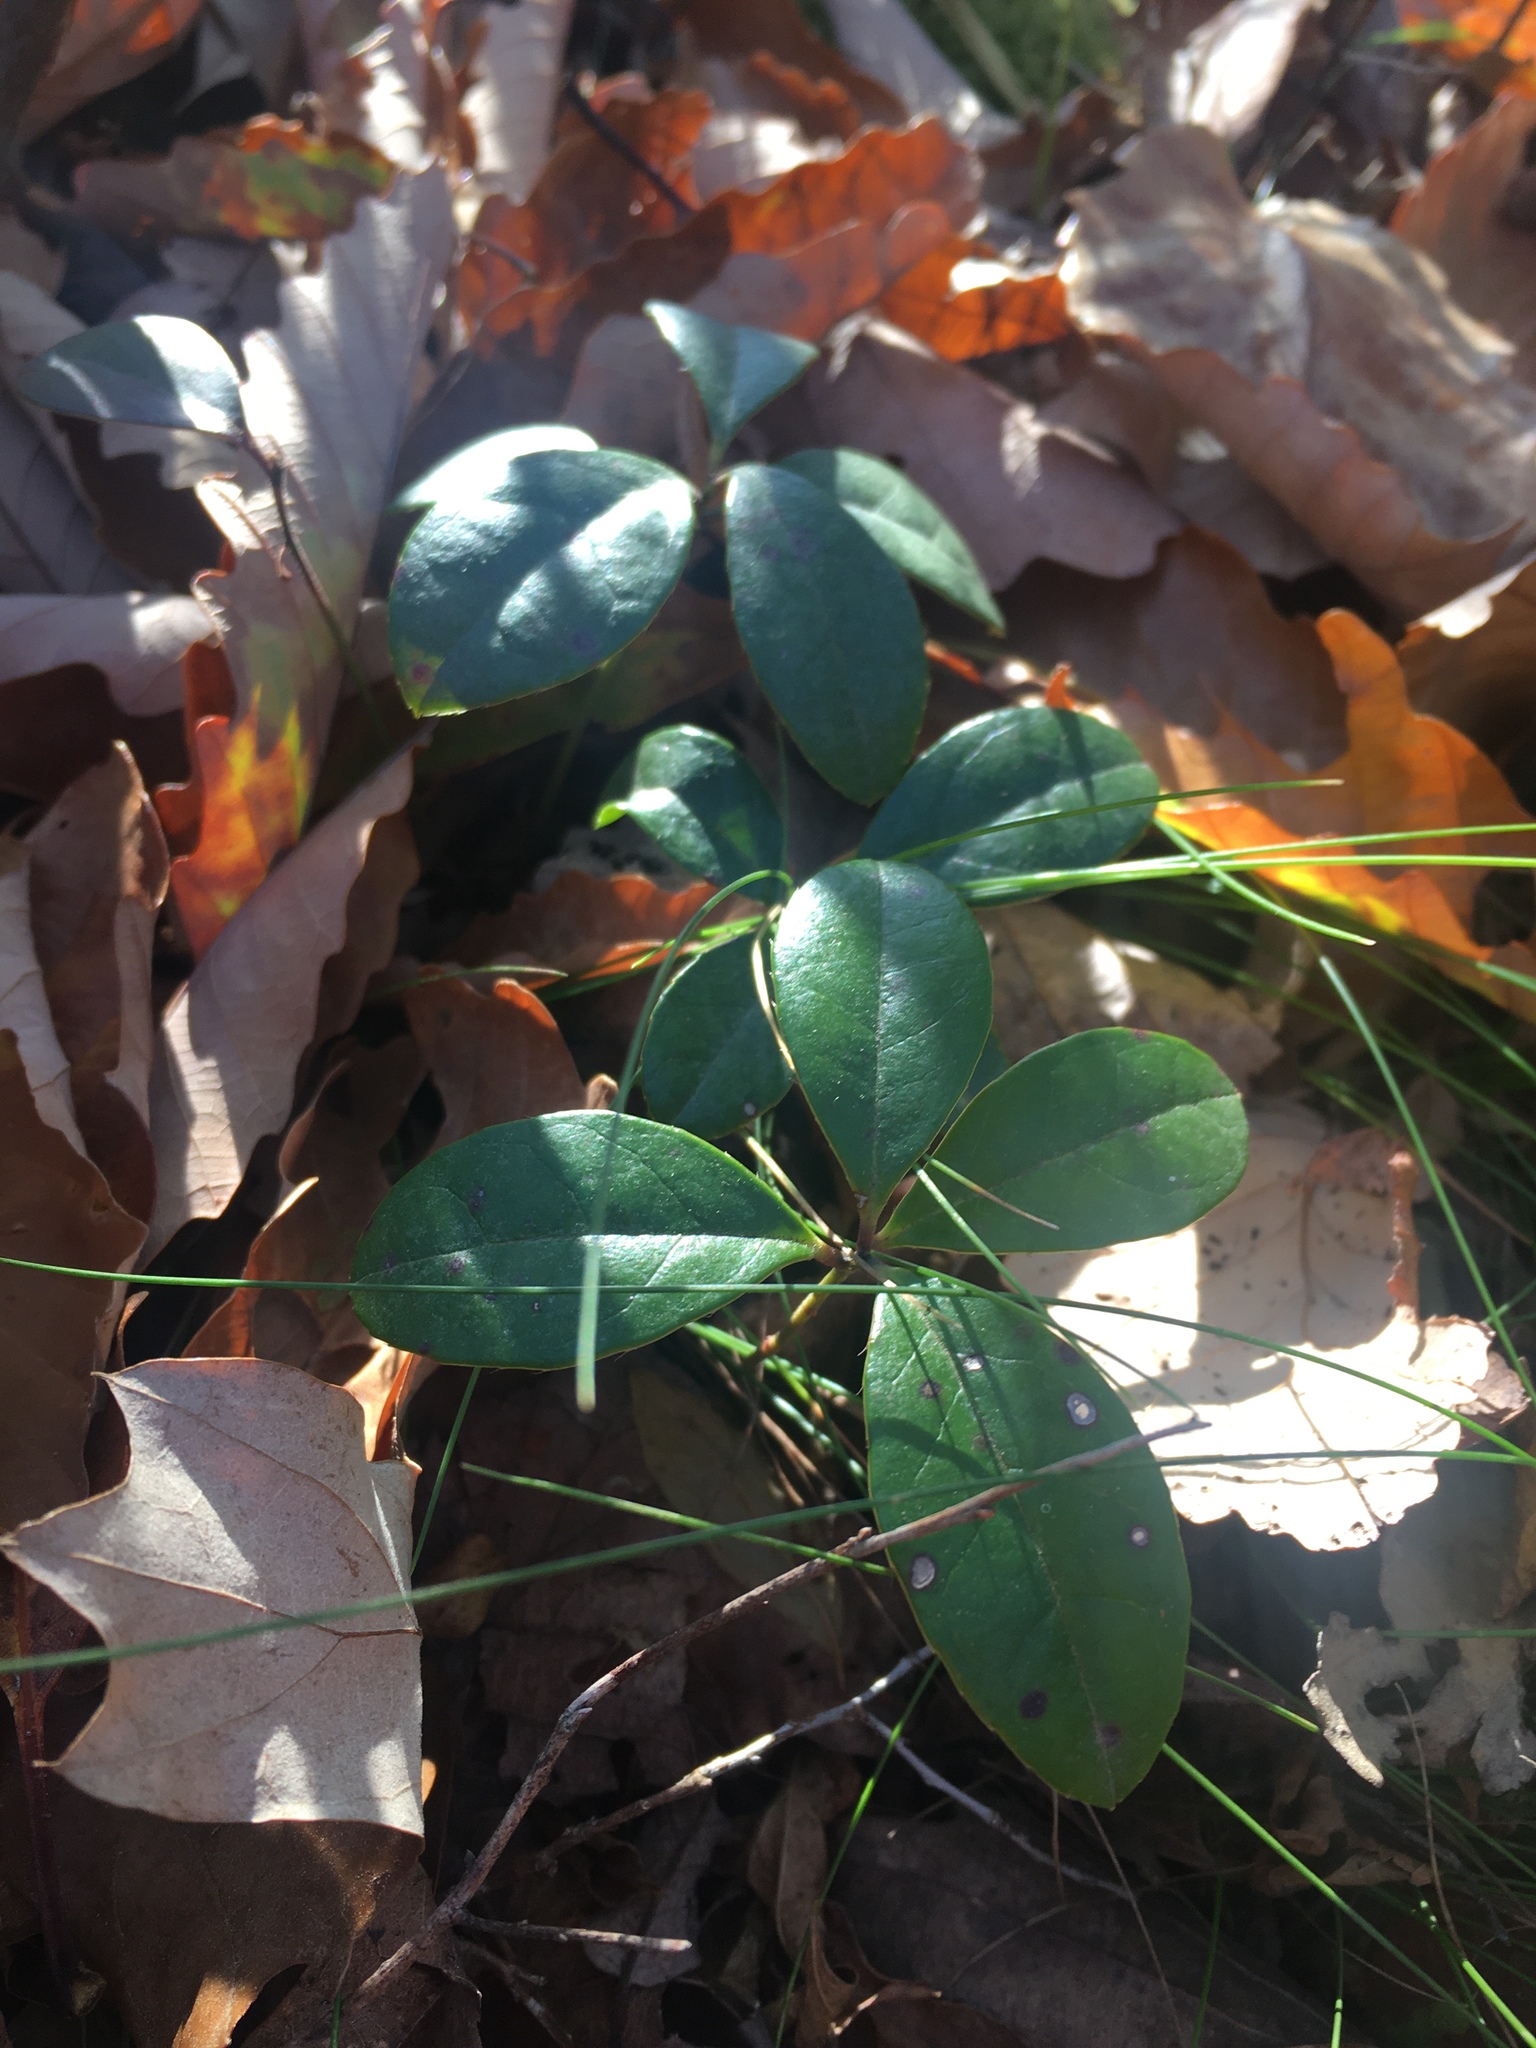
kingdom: Plantae
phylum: Tracheophyta
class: Magnoliopsida
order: Ericales
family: Ericaceae
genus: Gaultheria
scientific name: Gaultheria procumbens
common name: Checkerberry
